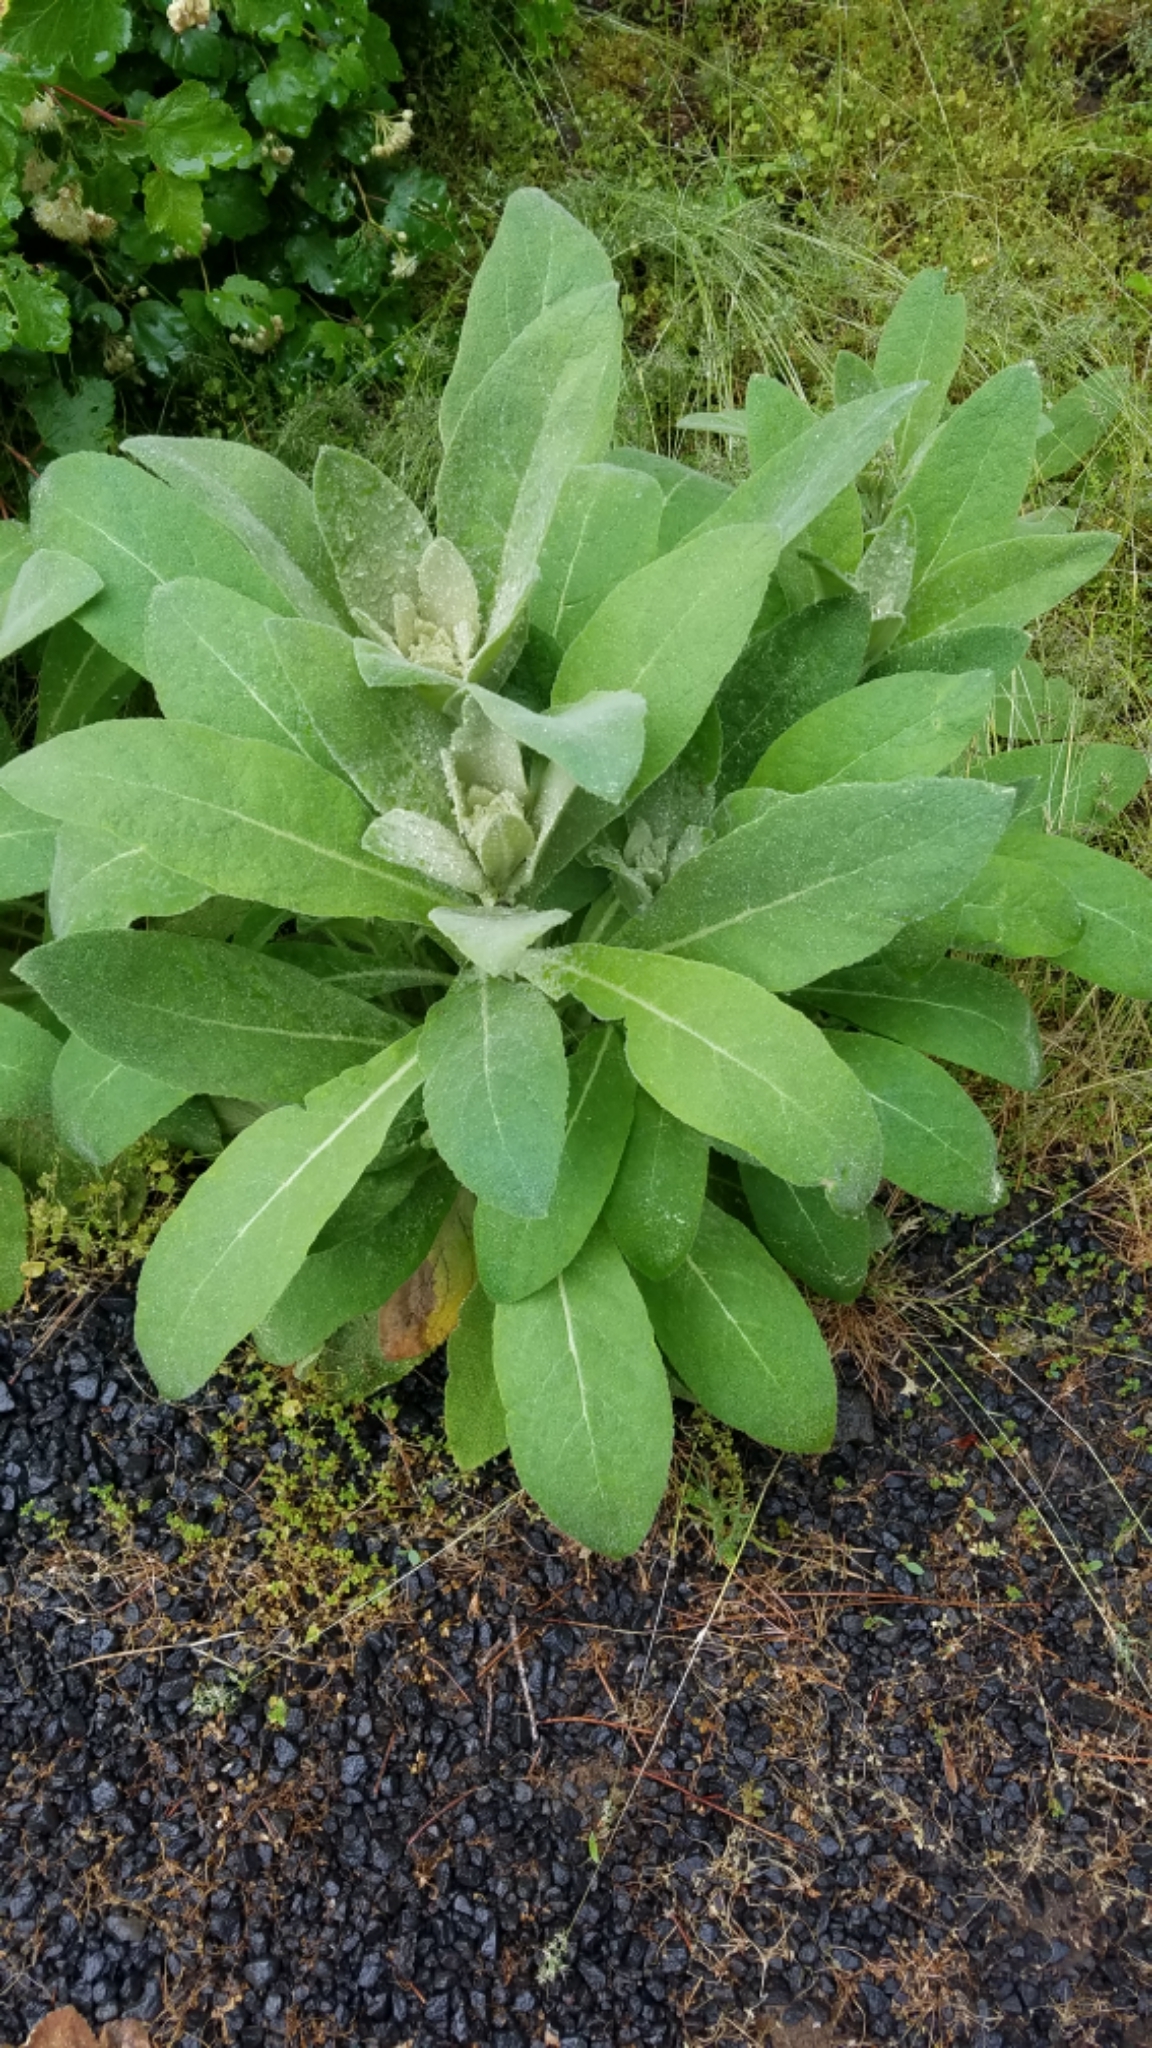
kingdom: Plantae
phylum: Tracheophyta
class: Magnoliopsida
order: Lamiales
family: Scrophulariaceae
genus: Verbascum
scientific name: Verbascum thapsus
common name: Common mullein
